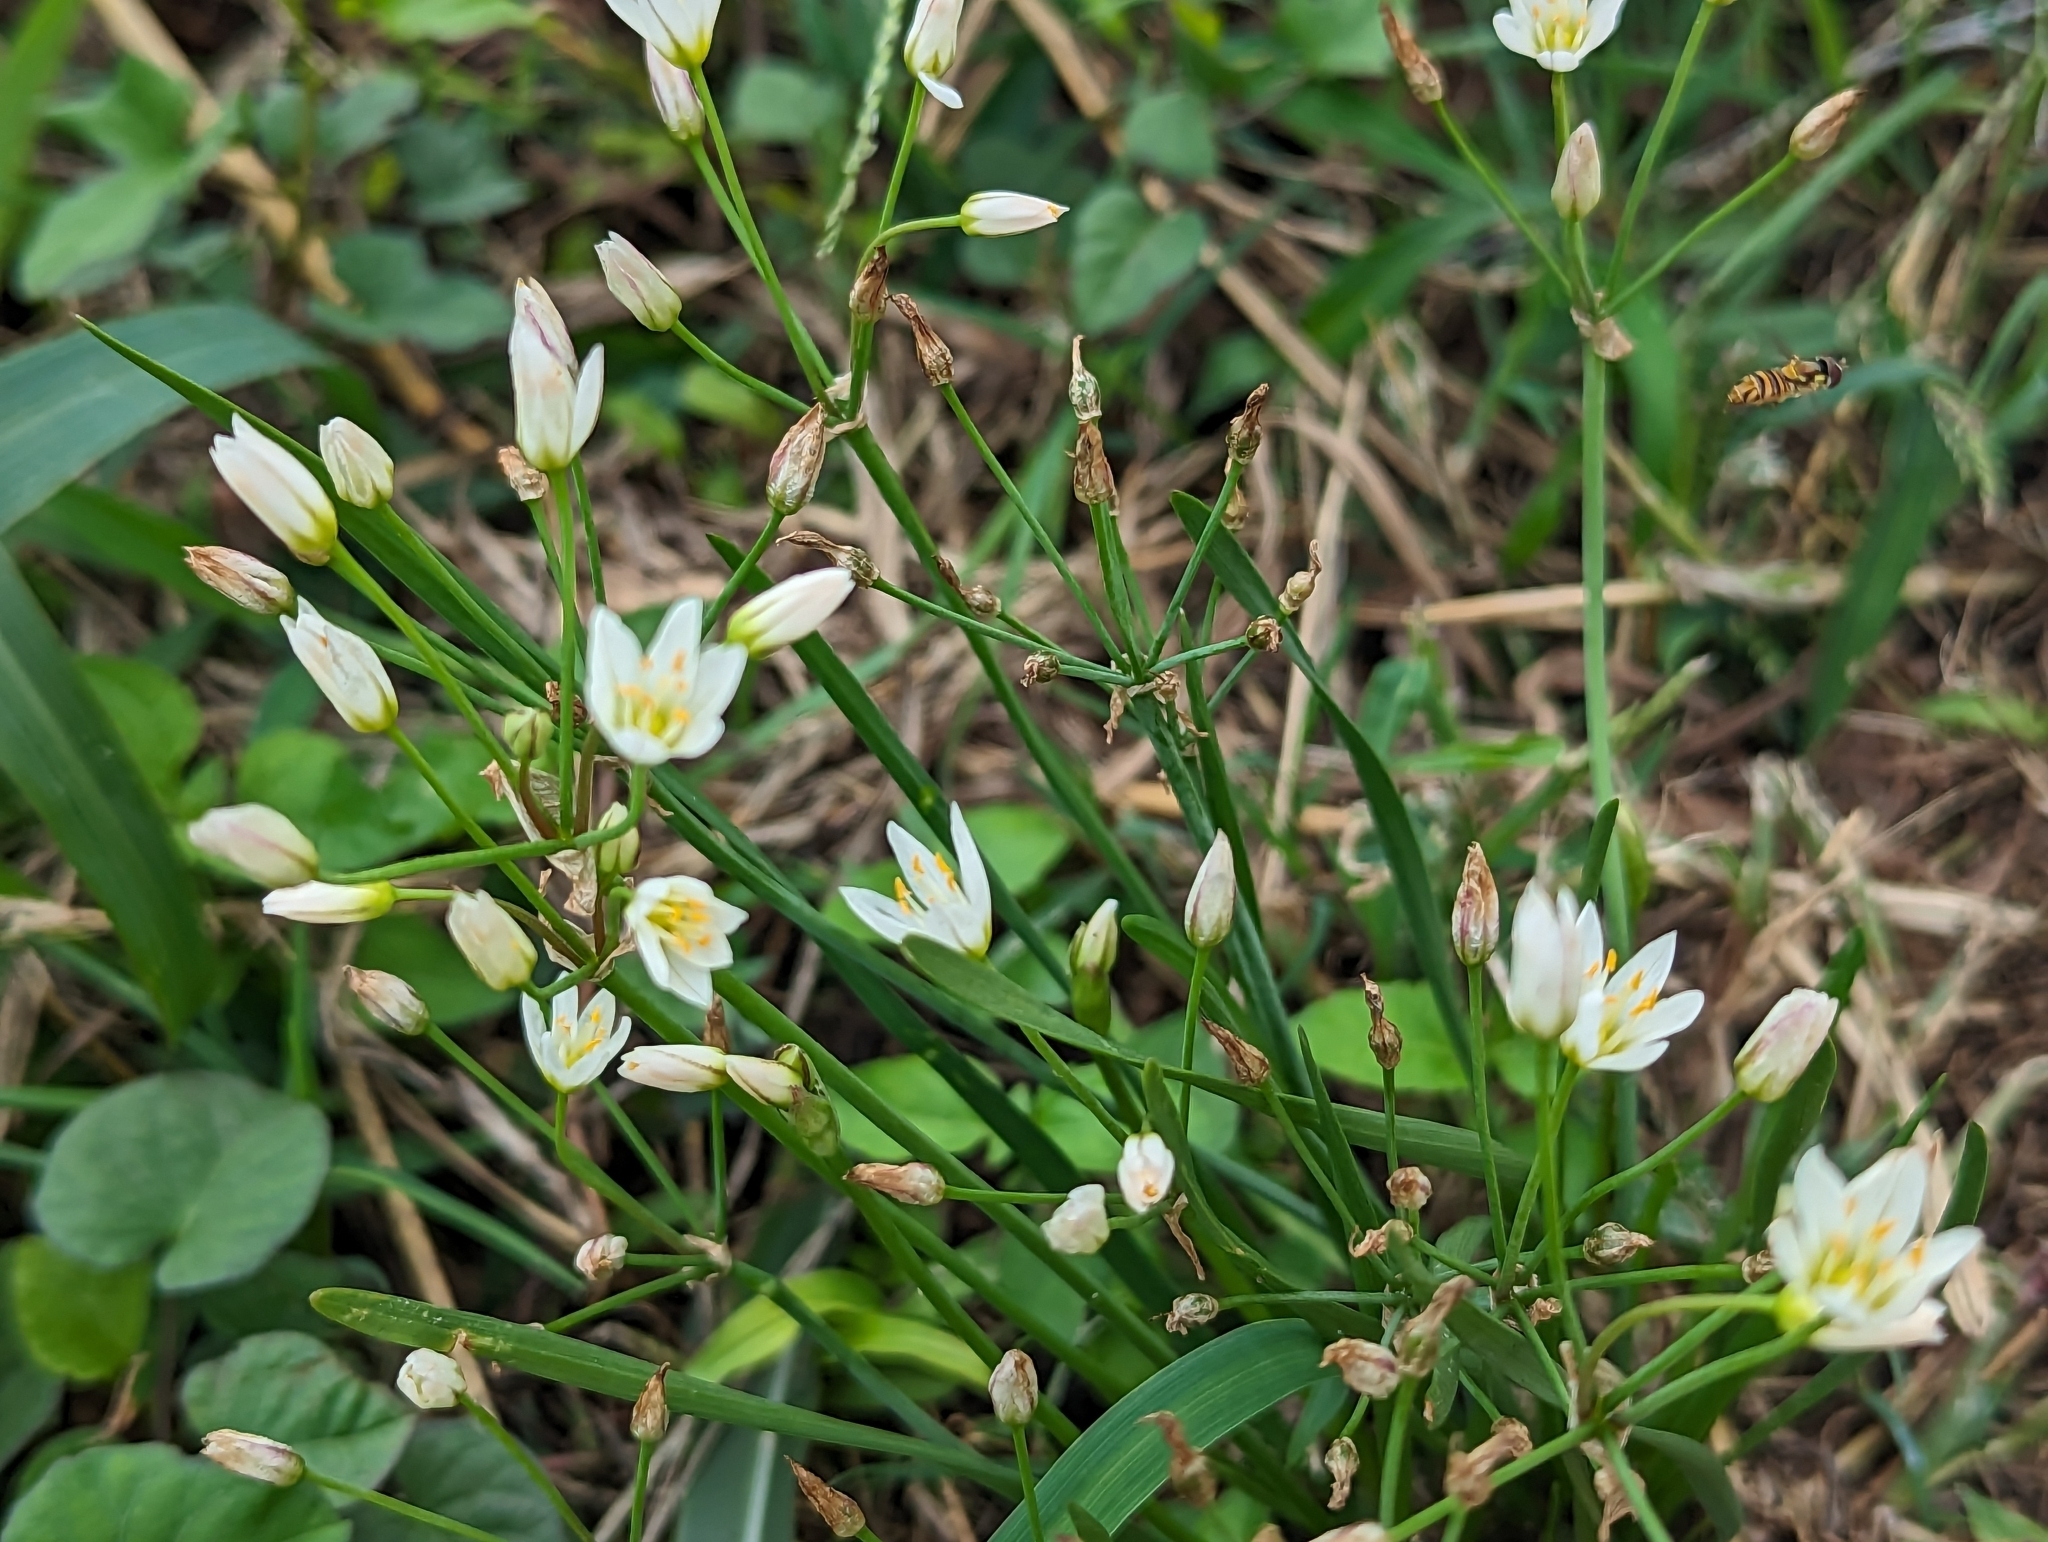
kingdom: Plantae
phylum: Tracheophyta
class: Liliopsida
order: Asparagales
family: Amaryllidaceae
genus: Nothoscordum
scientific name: Nothoscordum bivalve
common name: Crow-poison
